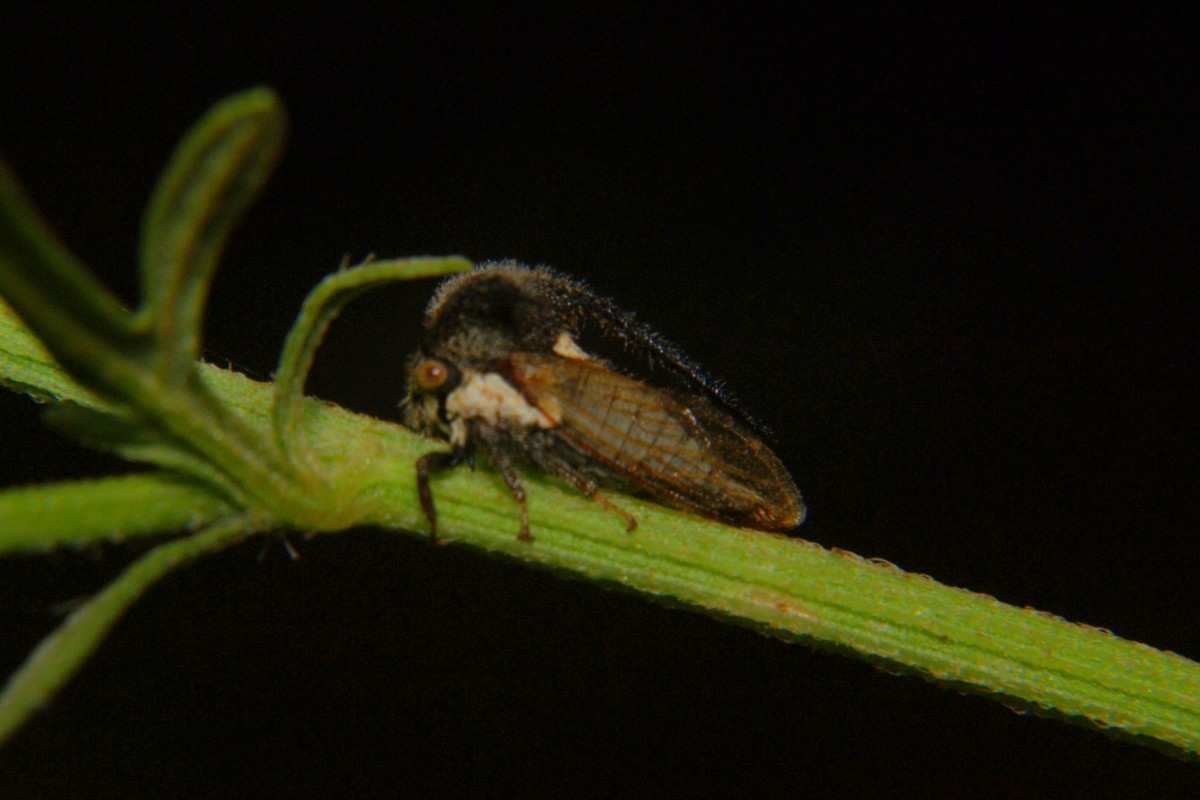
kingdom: Animalia
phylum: Arthropoda
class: Insecta
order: Hemiptera
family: Membracidae
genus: Leptocentrus
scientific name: Leptocentrus taurus
